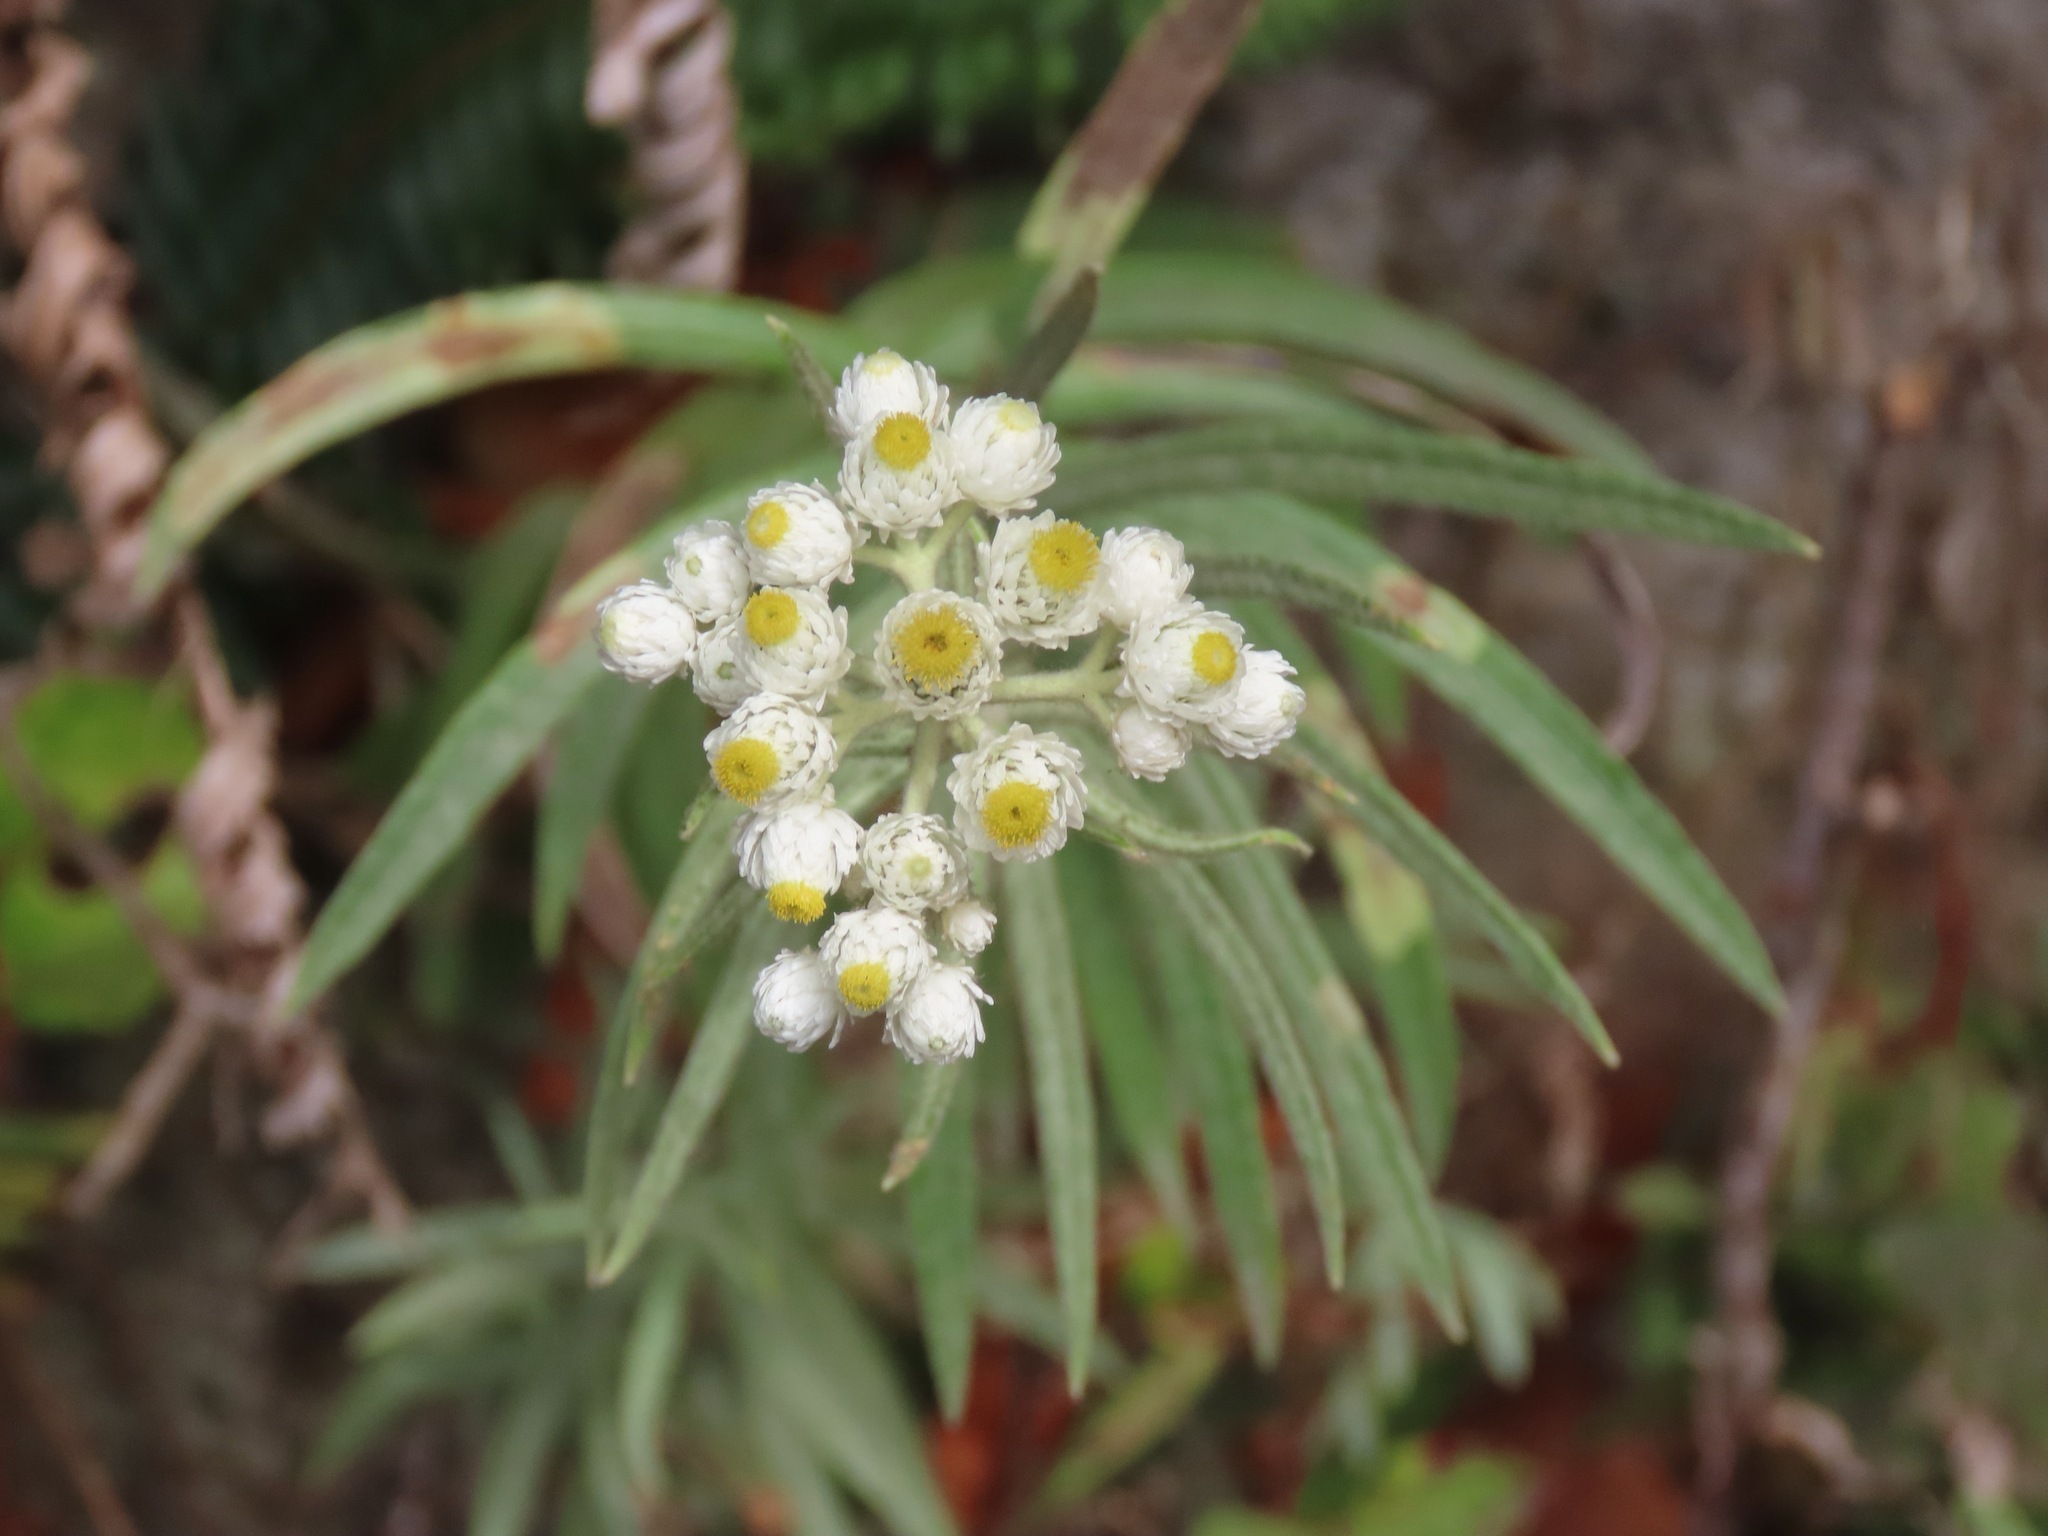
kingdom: Plantae
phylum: Tracheophyta
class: Magnoliopsida
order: Asterales
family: Asteraceae
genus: Anaphalis
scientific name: Anaphalis margaritacea
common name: Pearly everlasting
